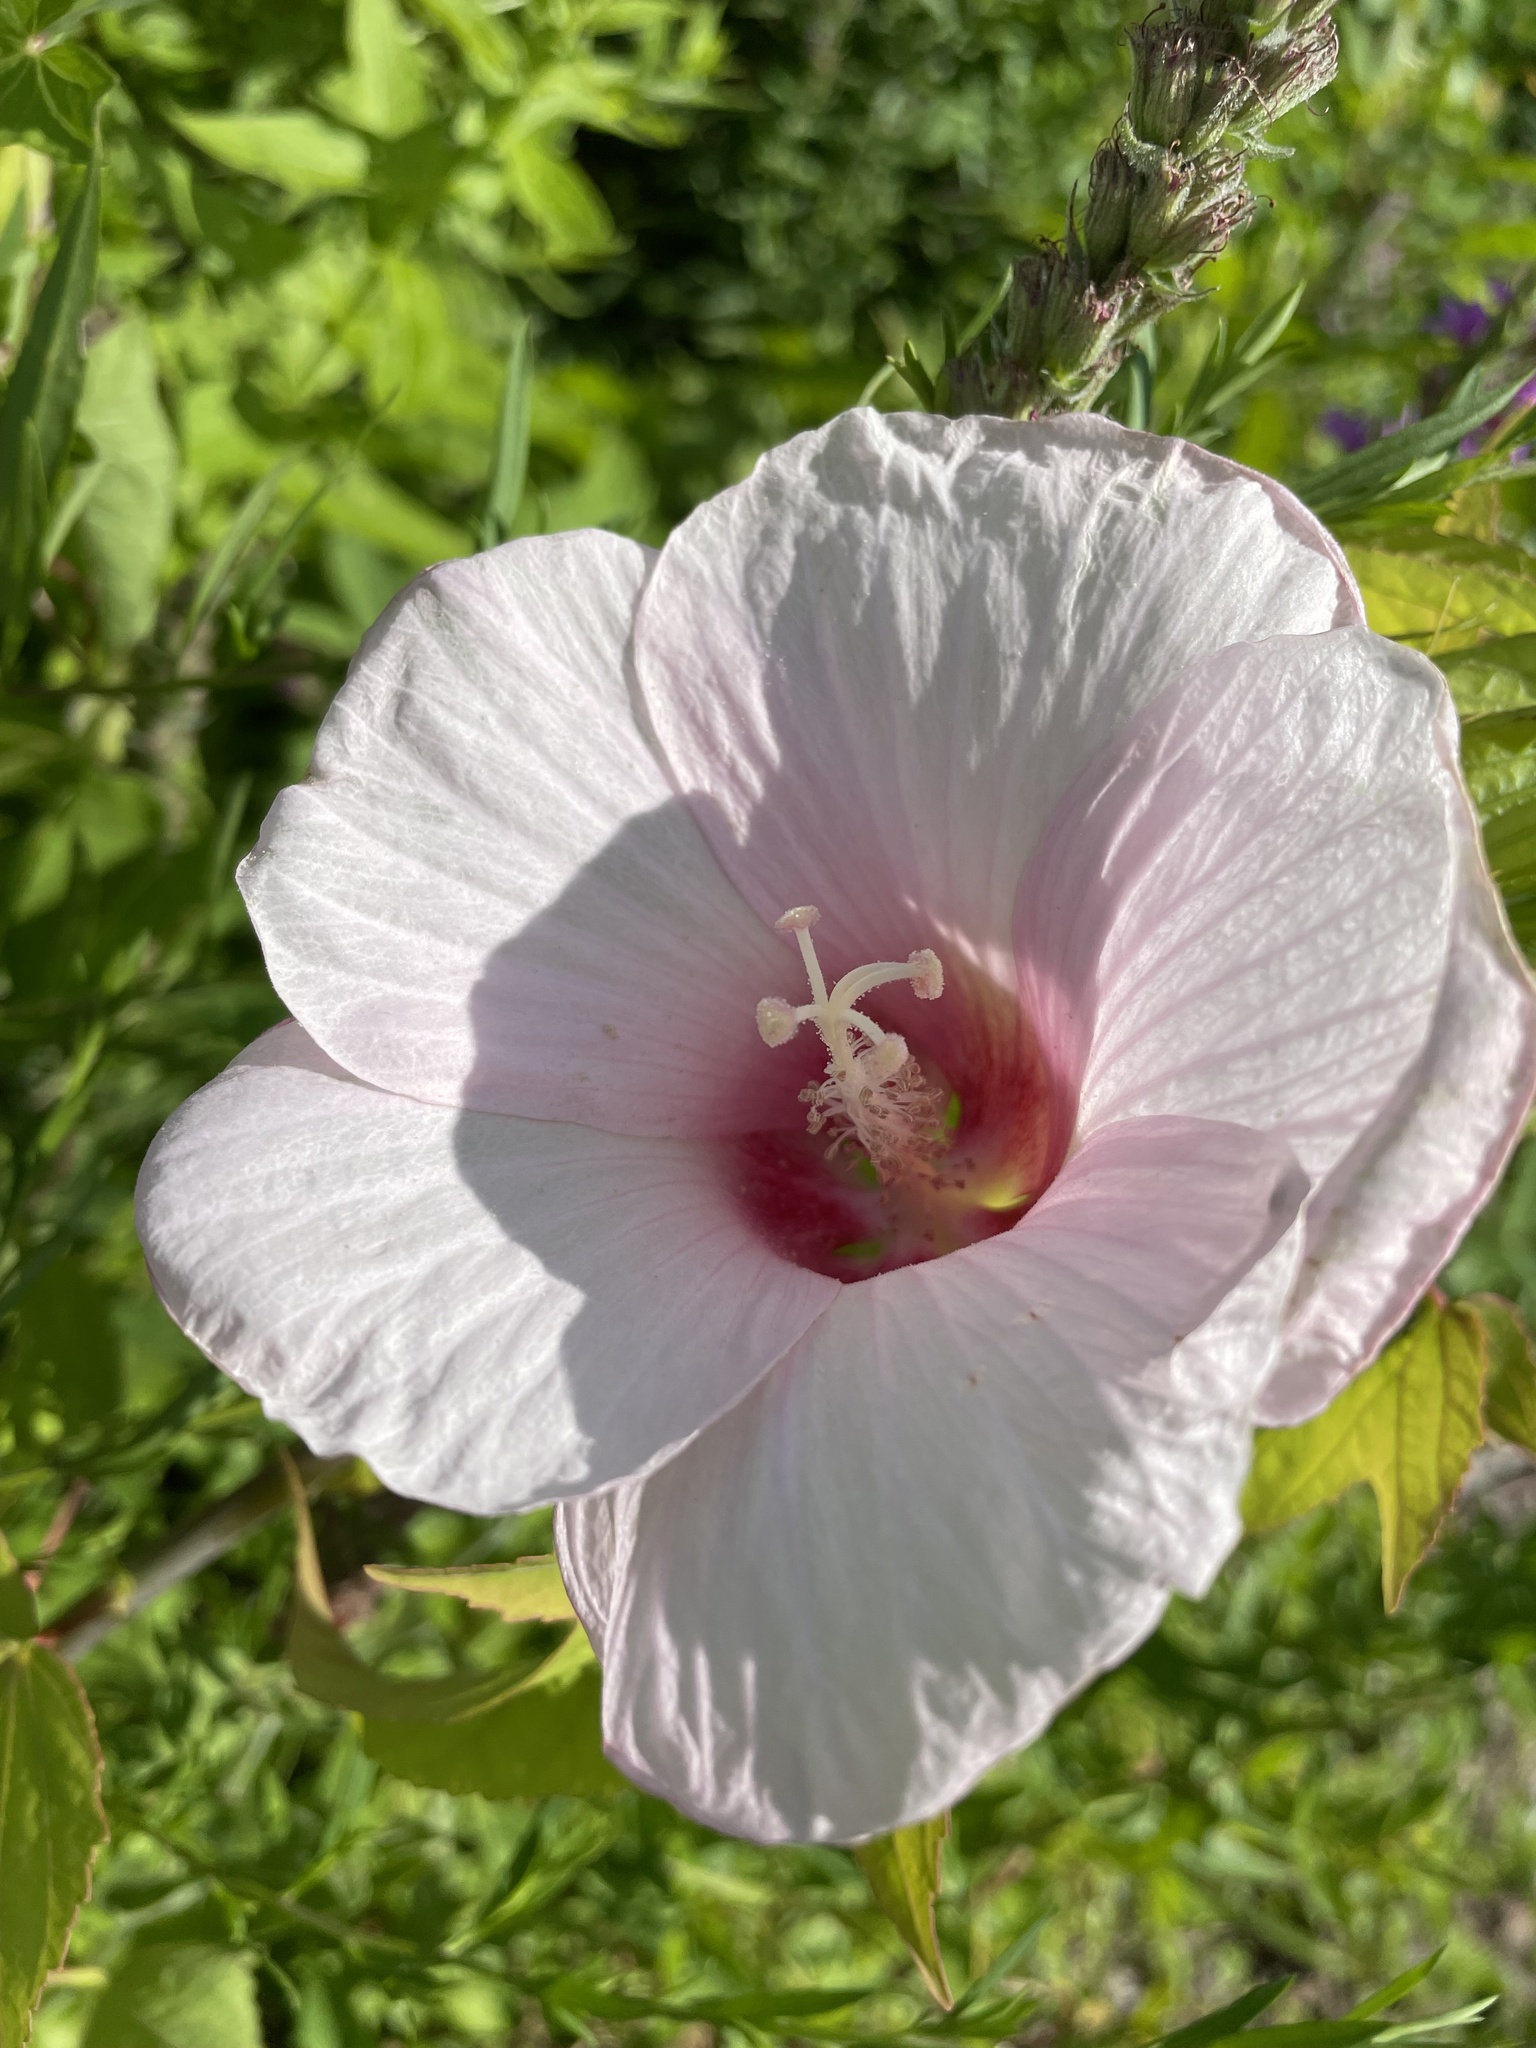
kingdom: Plantae
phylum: Tracheophyta
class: Magnoliopsida
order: Malvales
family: Malvaceae
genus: Hibiscus
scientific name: Hibiscus laevis
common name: Scarlet rose-mallow
